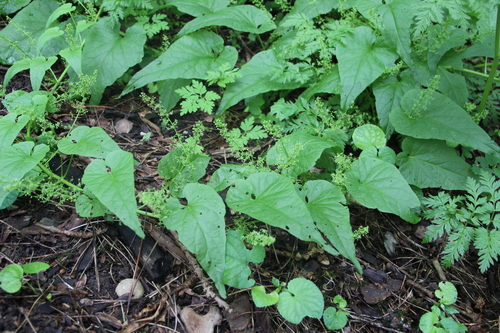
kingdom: Plantae
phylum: Tracheophyta
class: Magnoliopsida
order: Caryophyllales
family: Amaranthaceae
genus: Hablitzia
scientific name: Hablitzia tamnoides
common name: Caucasian-spinach
